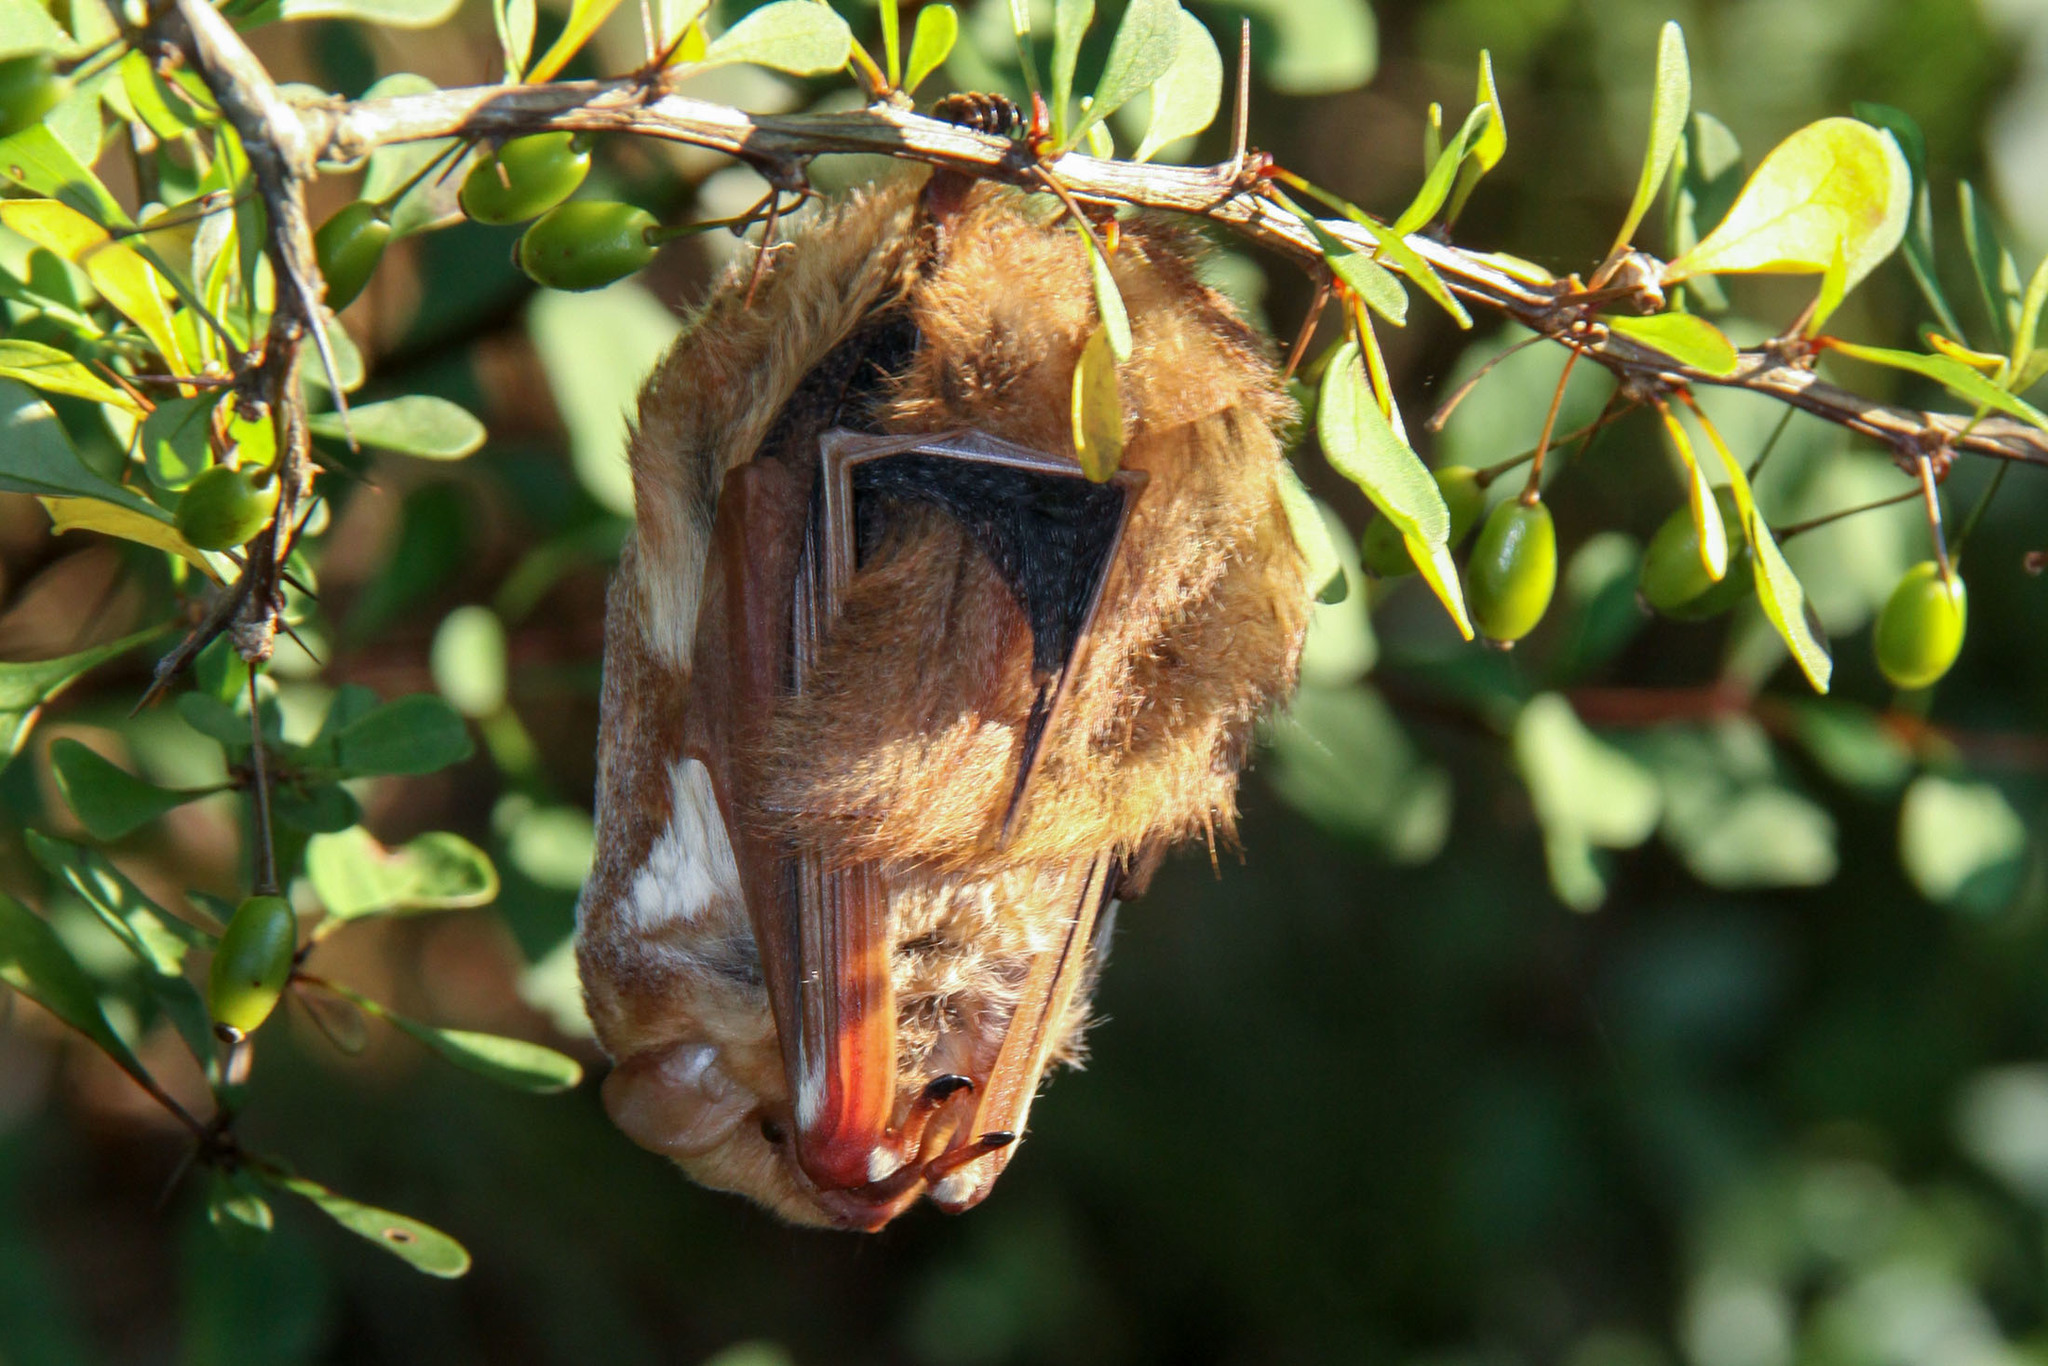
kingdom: Animalia
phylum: Chordata
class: Mammalia
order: Chiroptera
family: Vespertilionidae
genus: Lasiurus
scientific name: Lasiurus borealis
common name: Eastern red bat
